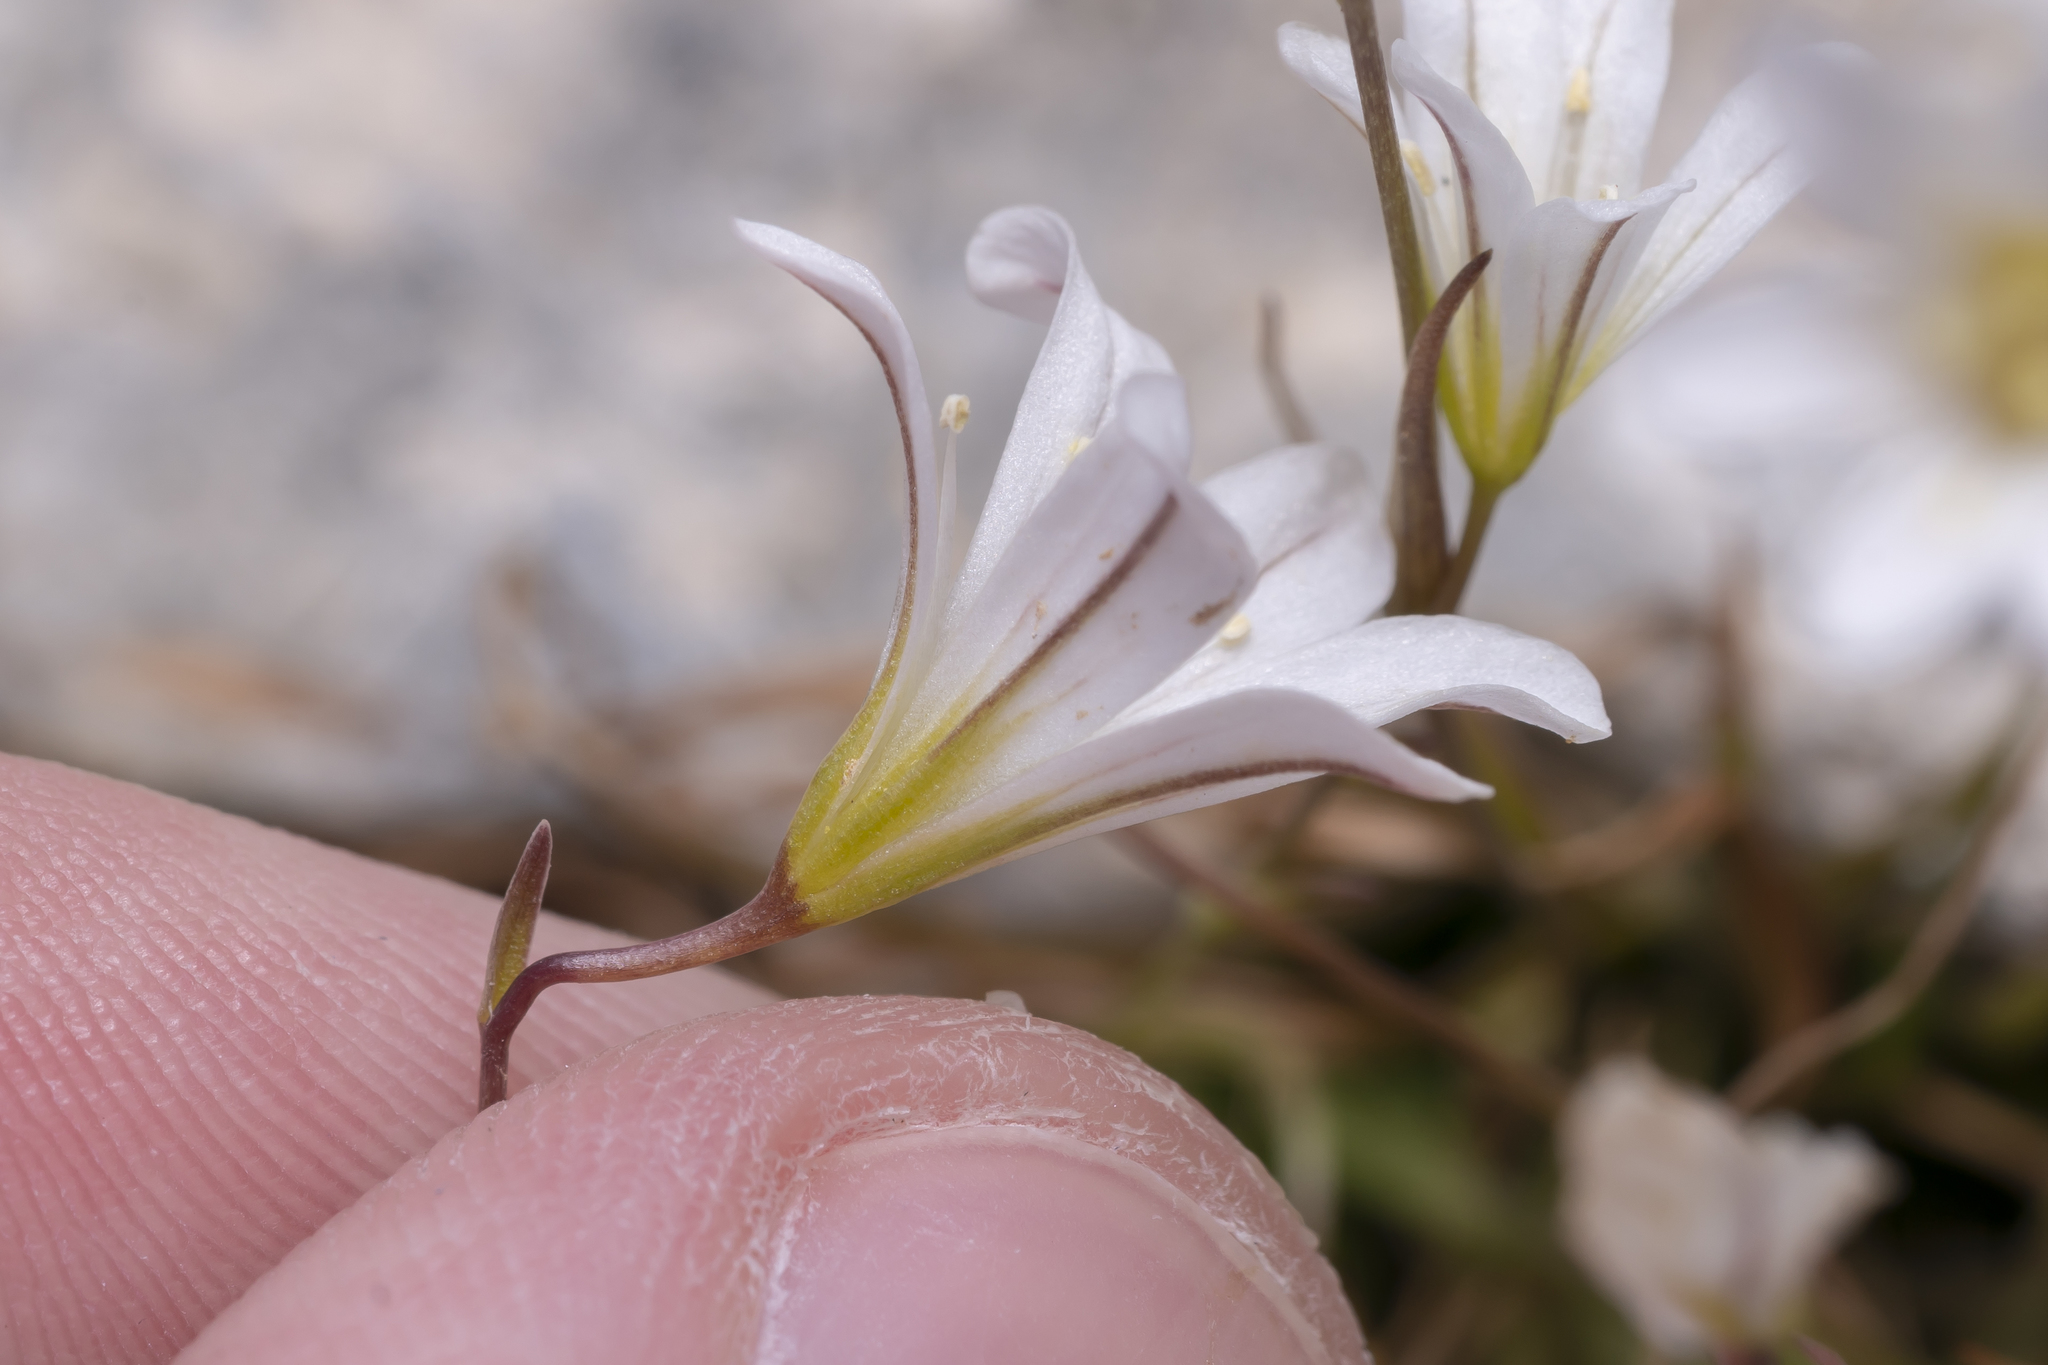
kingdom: Plantae
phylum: Tracheophyta
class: Liliopsida
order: Liliales
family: Liliaceae
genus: Gagea
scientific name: Gagea graeca
